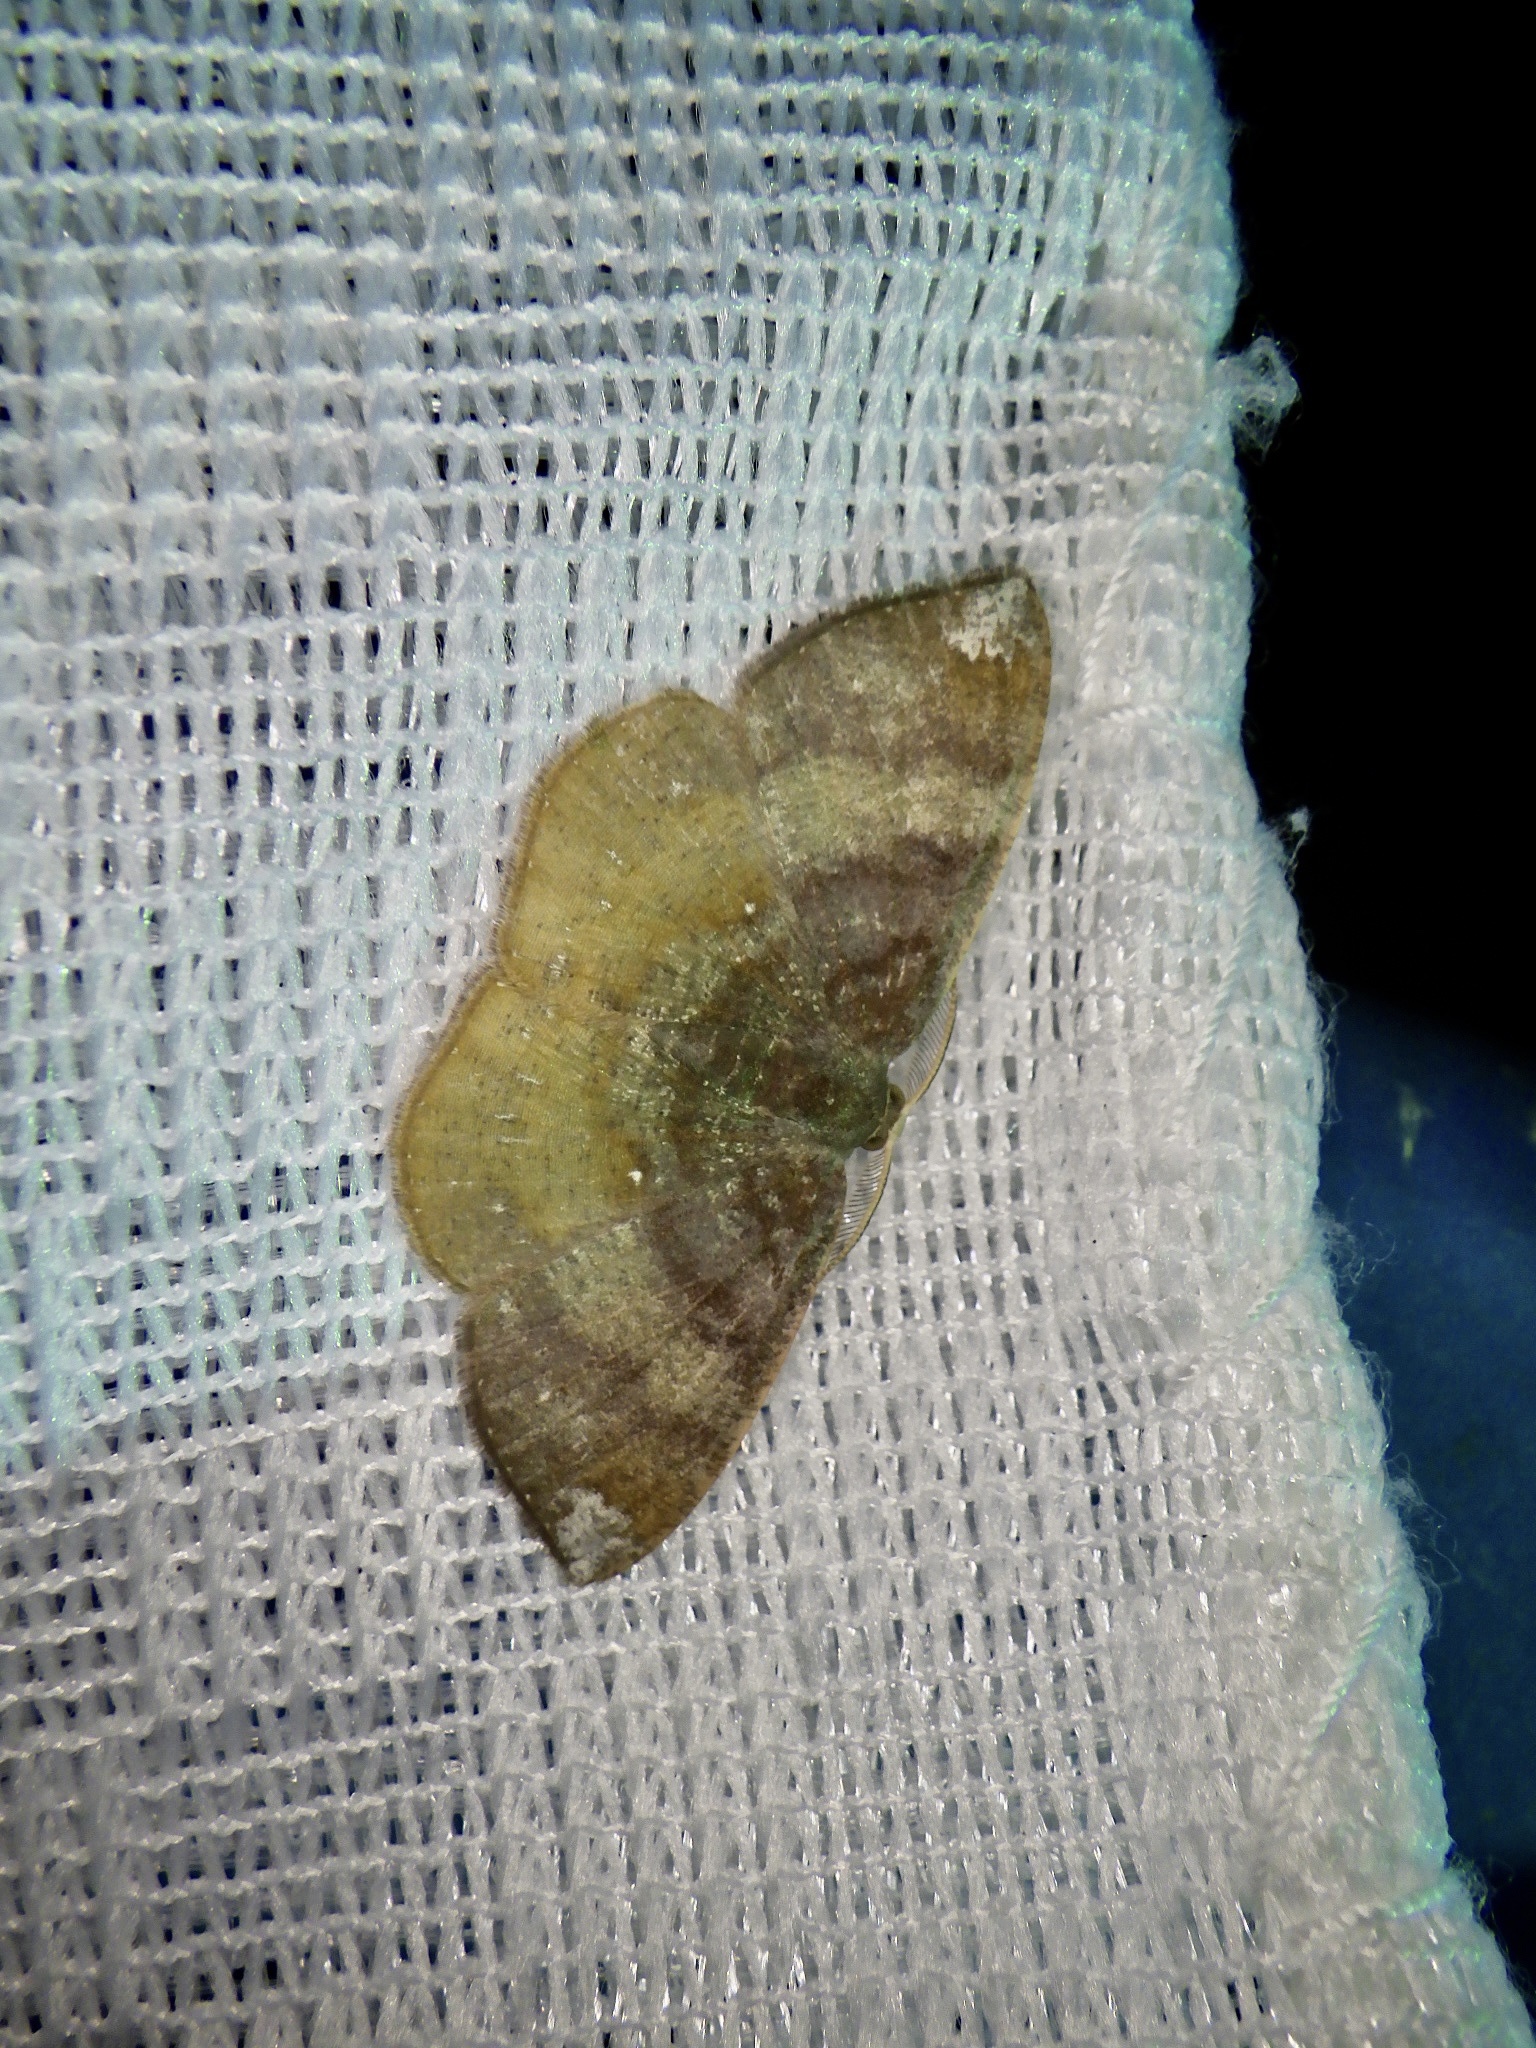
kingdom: Animalia
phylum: Arthropoda
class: Insecta
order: Lepidoptera
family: Geometridae
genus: Astygisa
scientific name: Astygisa morosa
